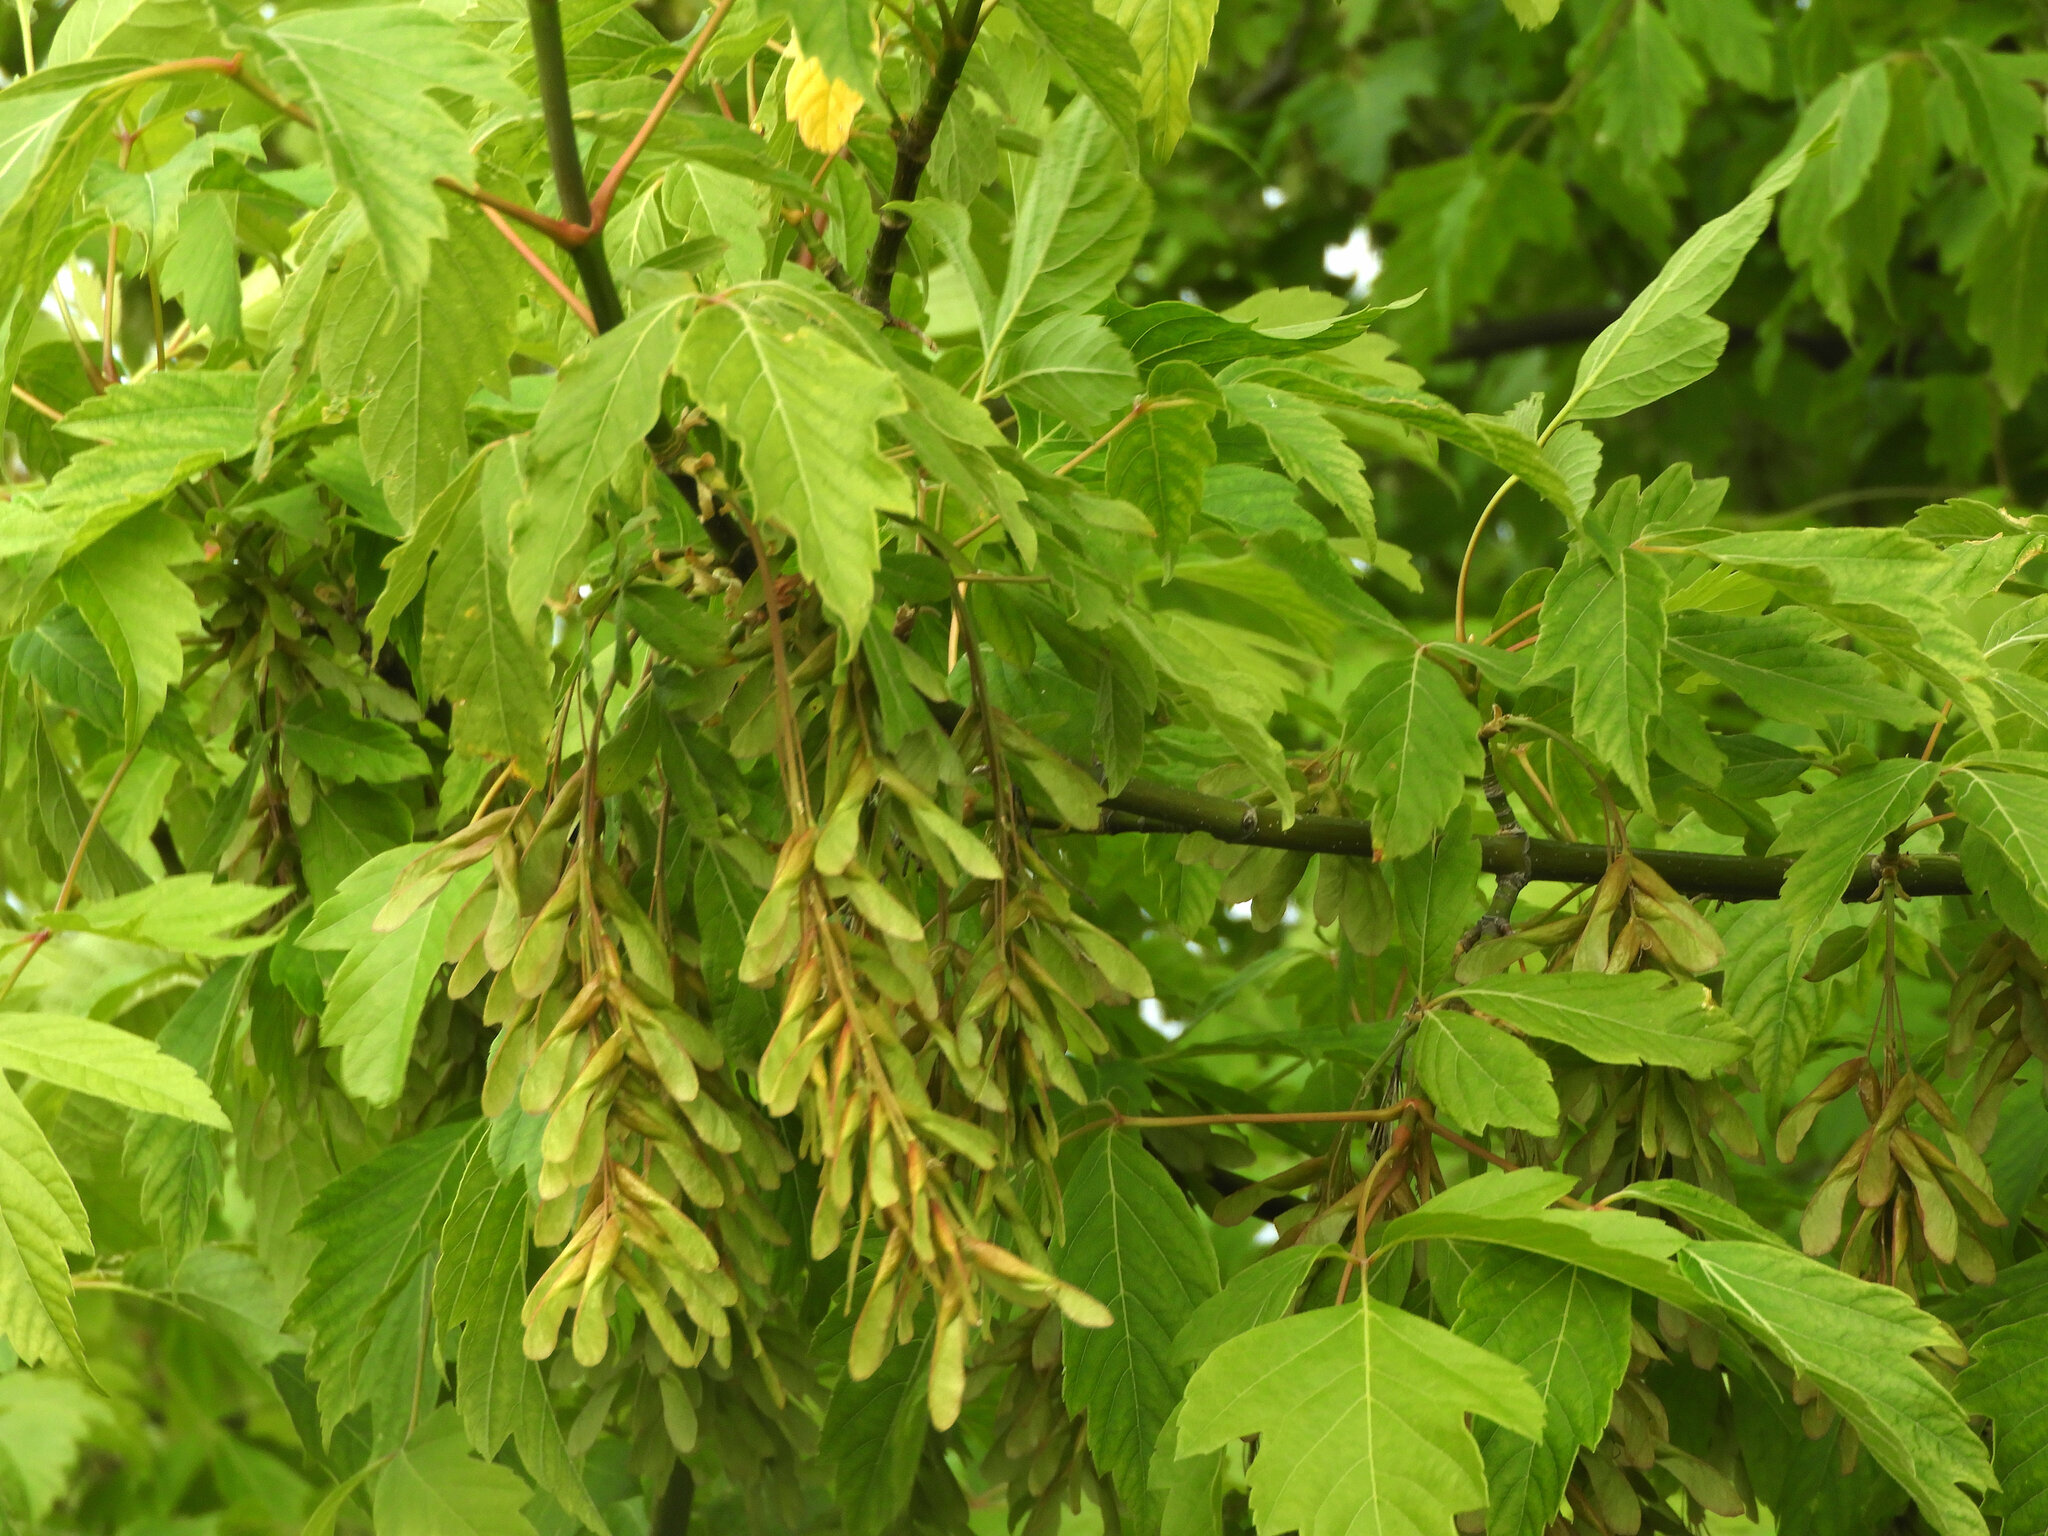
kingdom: Plantae
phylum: Tracheophyta
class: Magnoliopsida
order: Sapindales
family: Sapindaceae
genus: Acer
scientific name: Acer negundo
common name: Ashleaf maple
